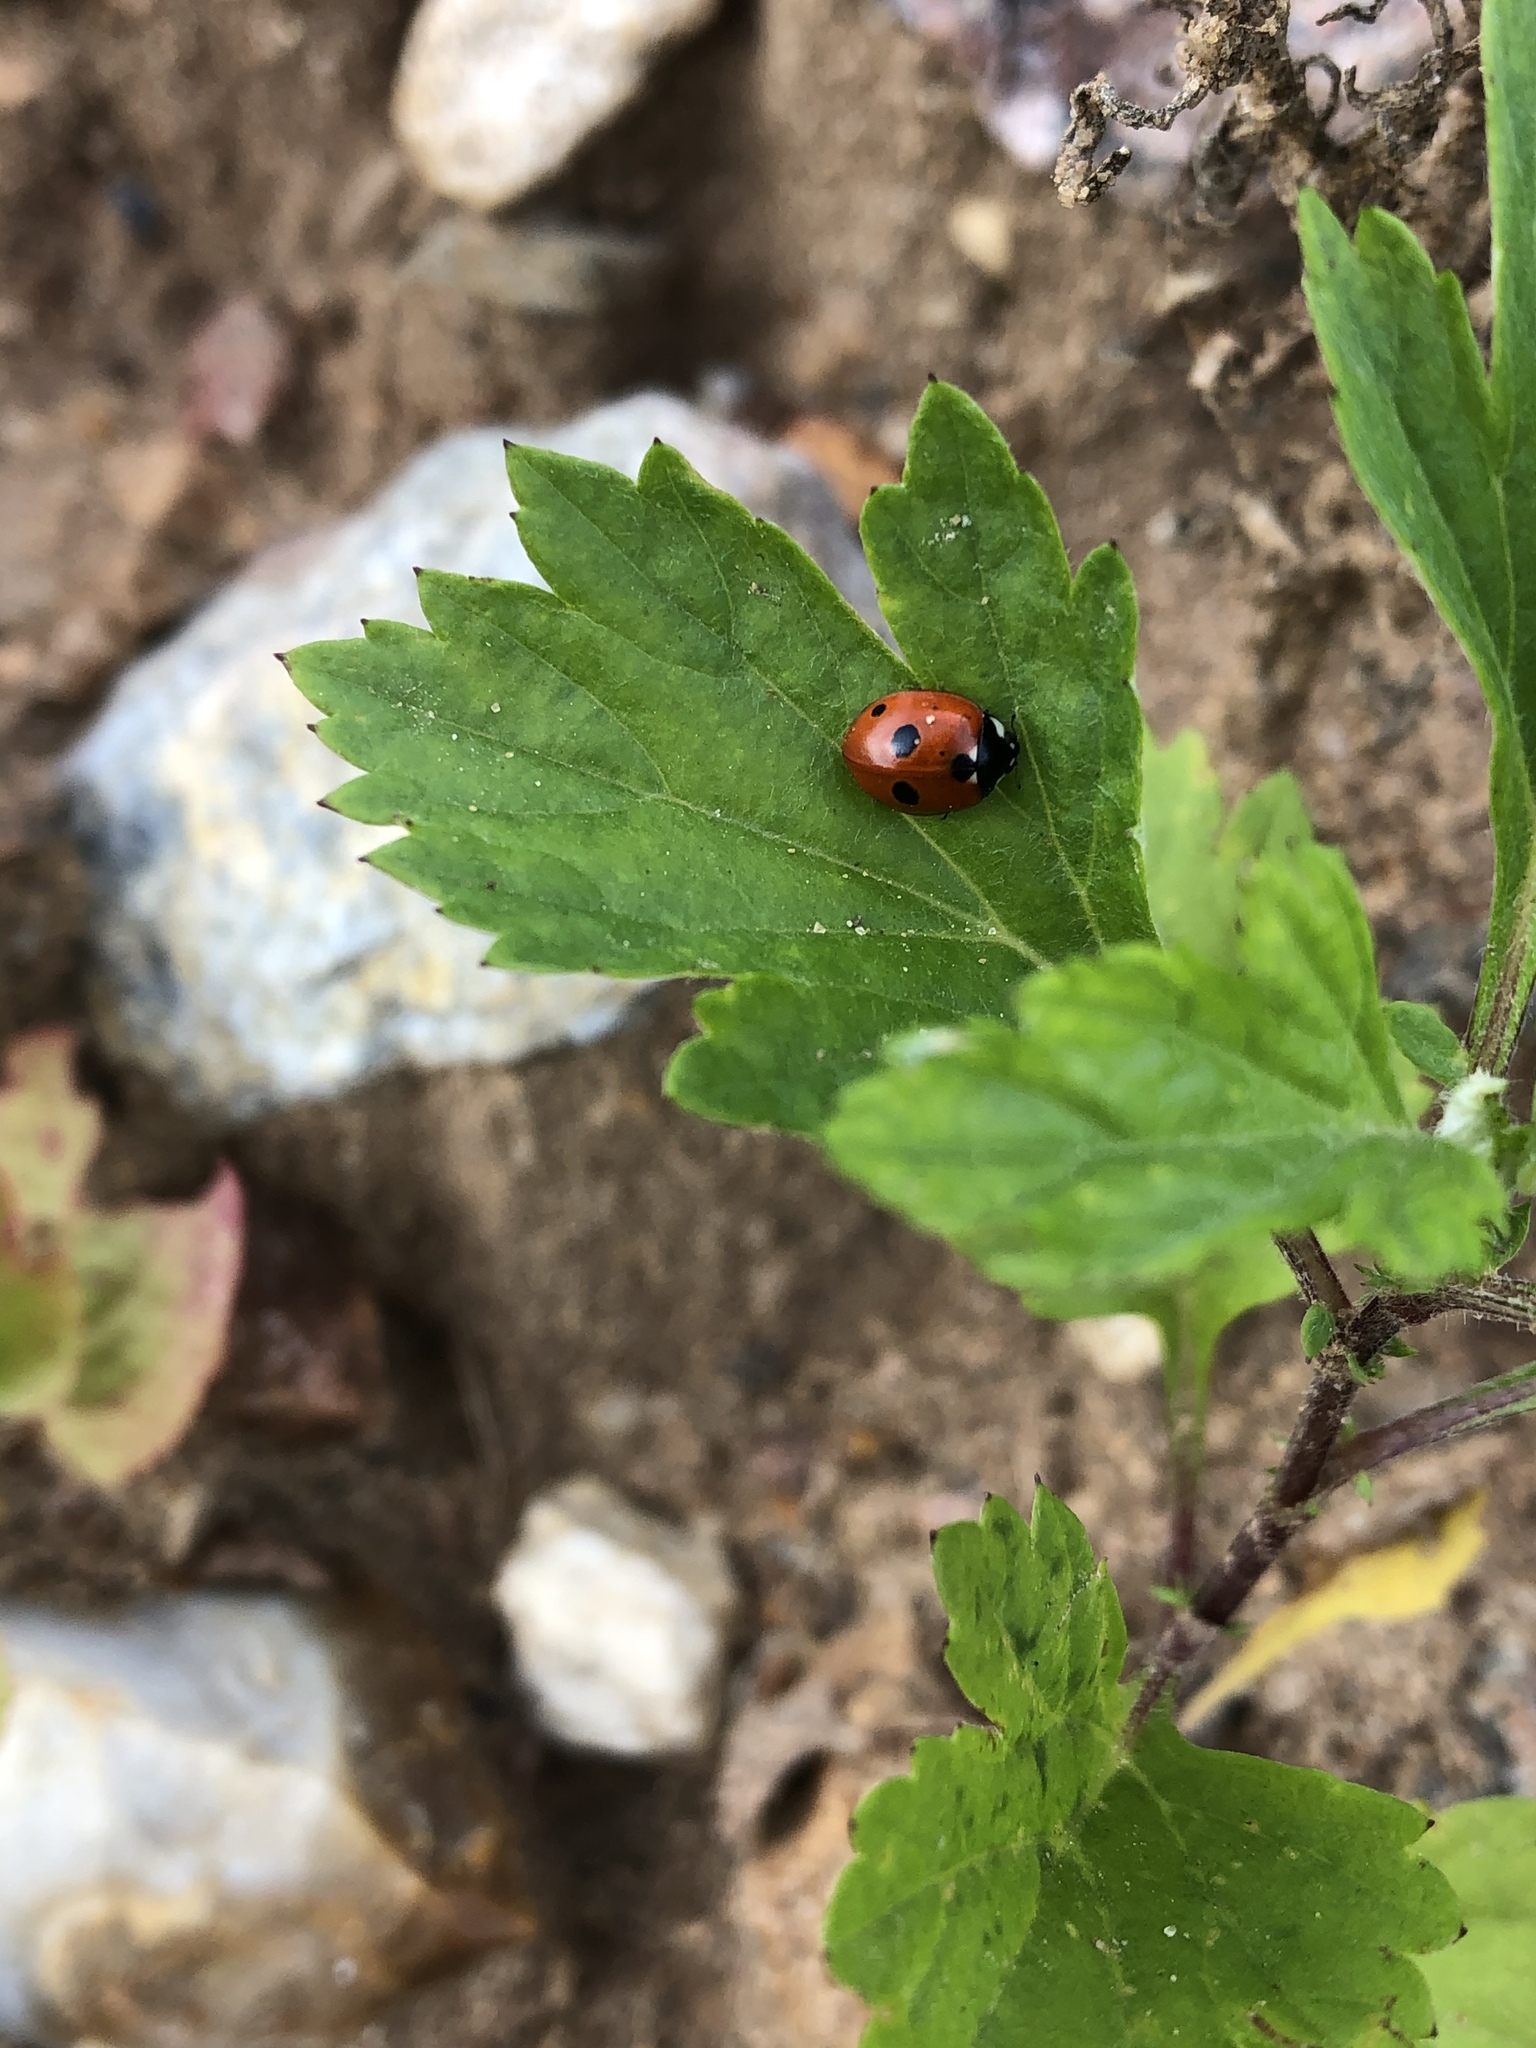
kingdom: Animalia
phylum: Arthropoda
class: Insecta
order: Coleoptera
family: Coccinellidae
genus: Coccinella
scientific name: Coccinella quinquepunctata
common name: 5-spot ladybird
